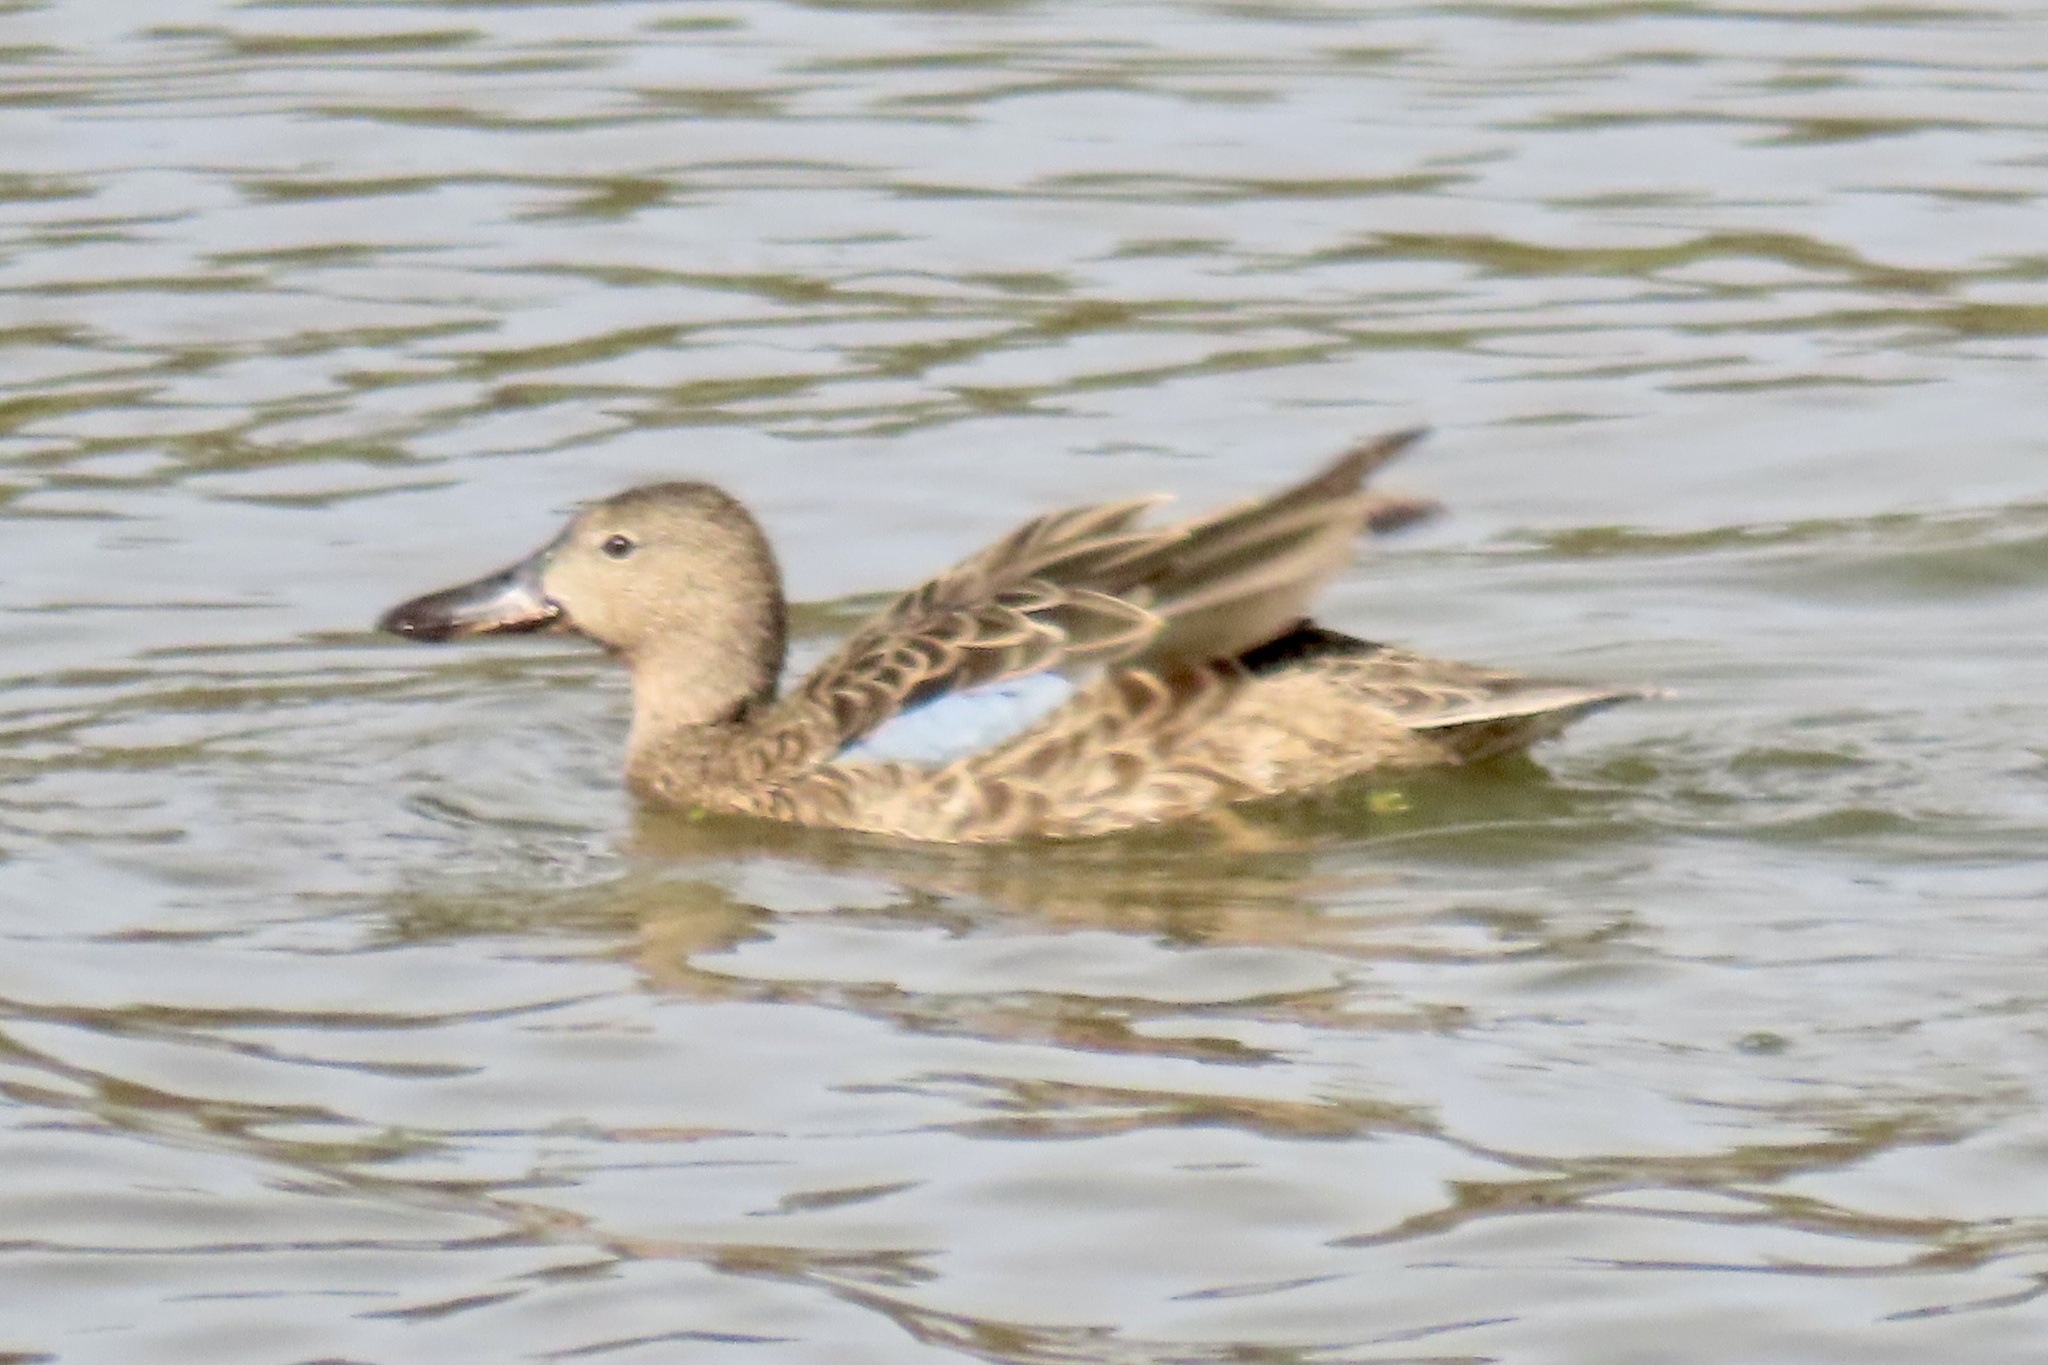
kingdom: Animalia
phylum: Chordata
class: Aves
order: Anseriformes
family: Anatidae
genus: Spatula
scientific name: Spatula discors
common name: Blue-winged teal
